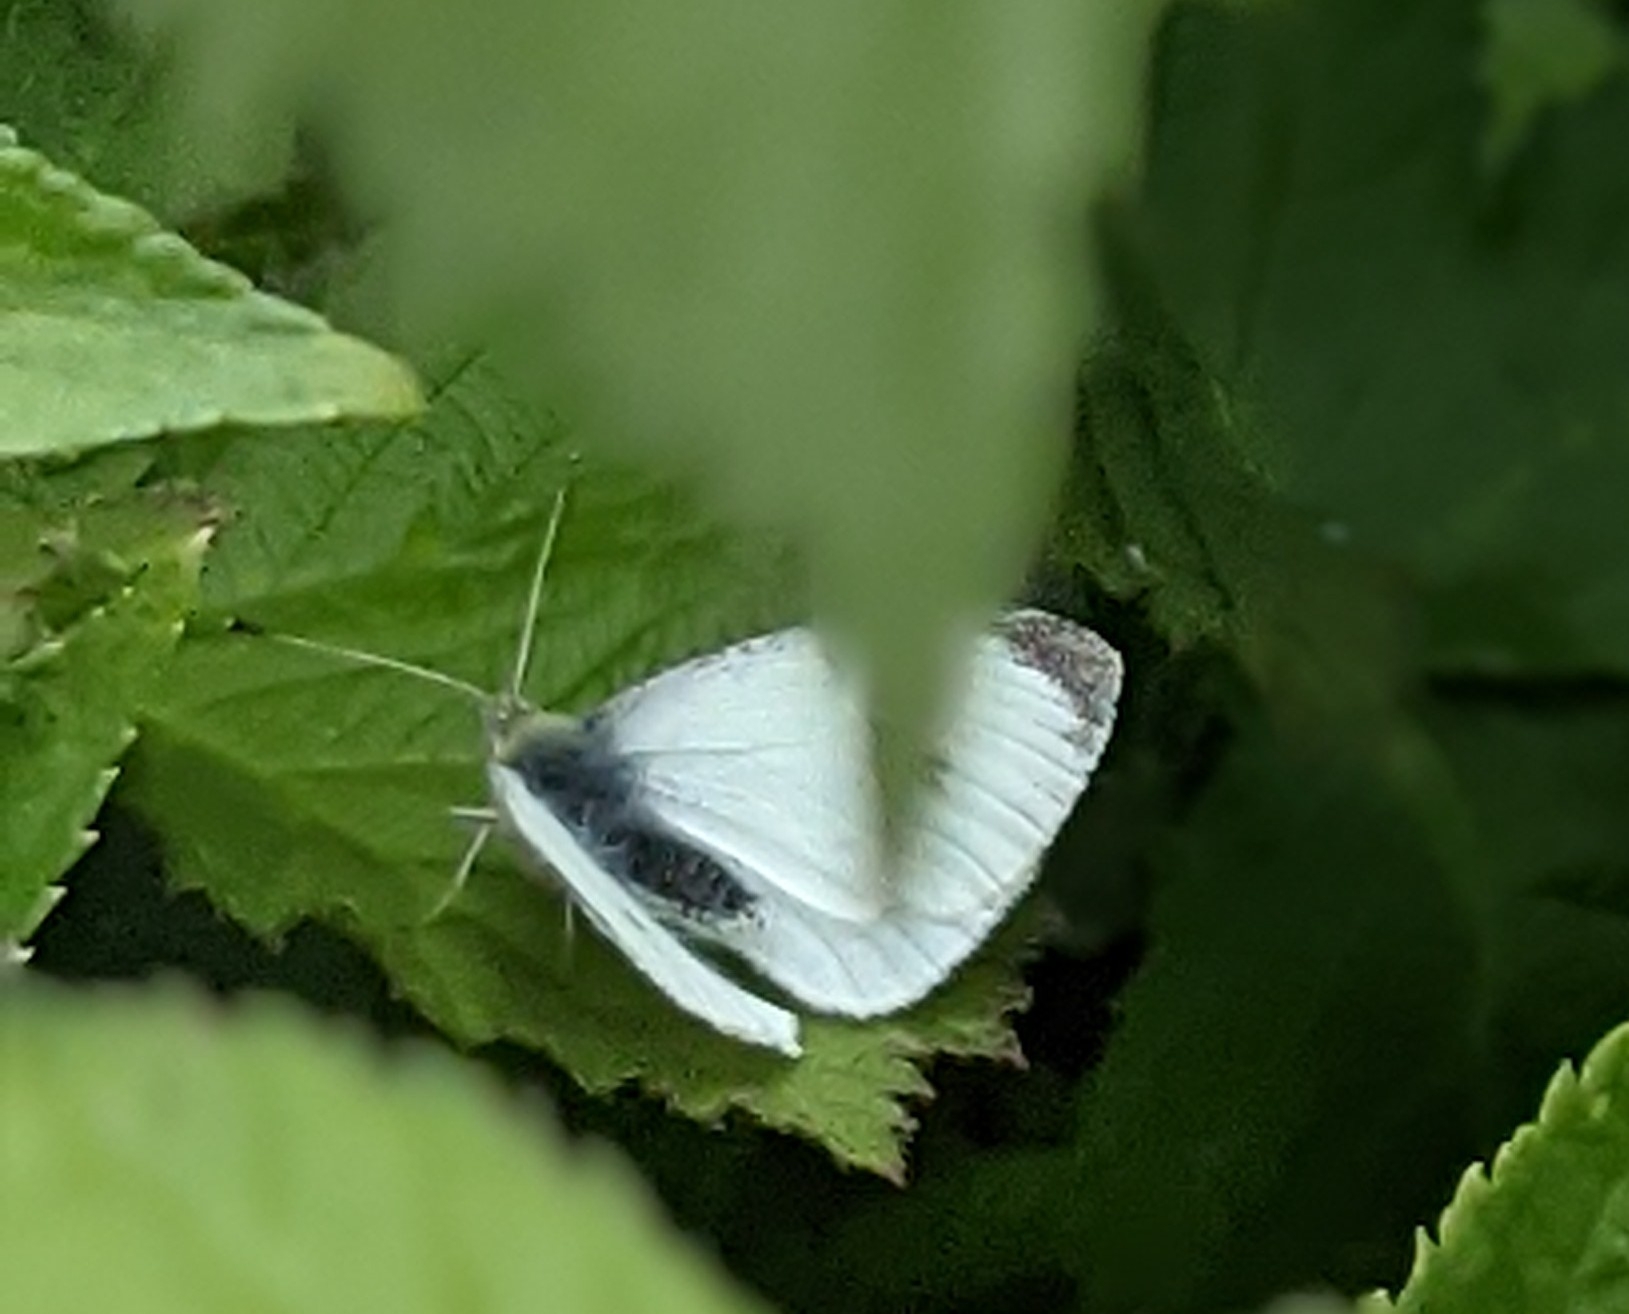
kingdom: Animalia
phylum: Arthropoda
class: Insecta
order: Lepidoptera
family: Pieridae
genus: Pieris
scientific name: Pieris rapae
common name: Small white
